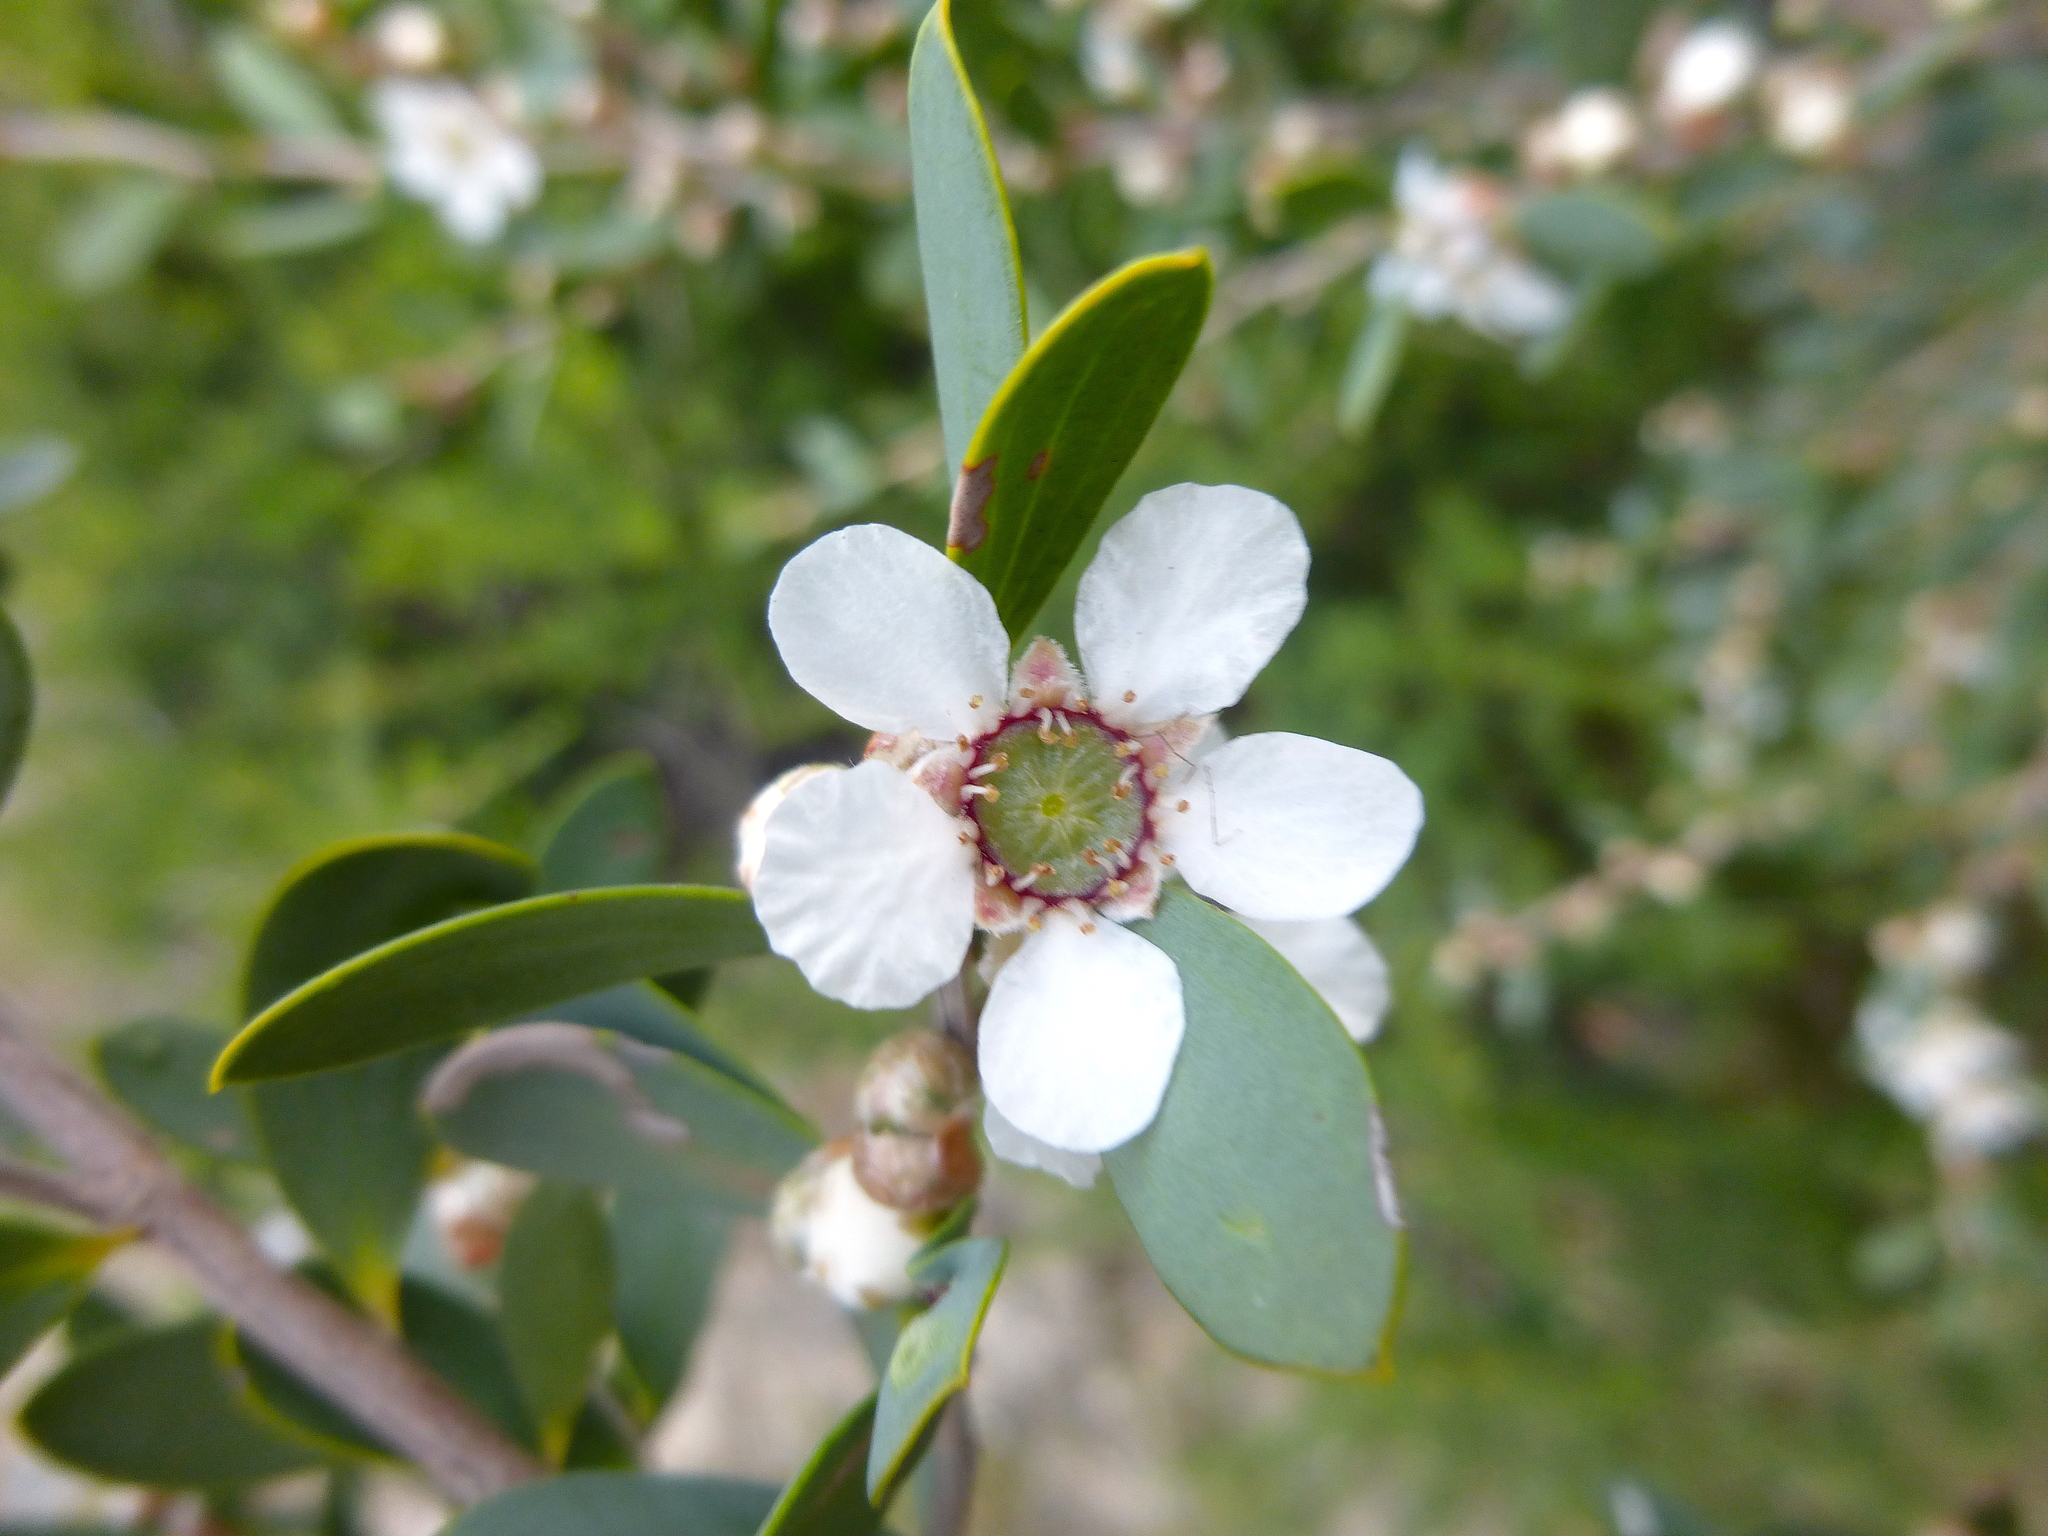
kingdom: Plantae
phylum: Tracheophyta
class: Magnoliopsida
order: Myrtales
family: Myrtaceae
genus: Leptospermum
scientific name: Leptospermum laevigatum
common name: Australian teatree
